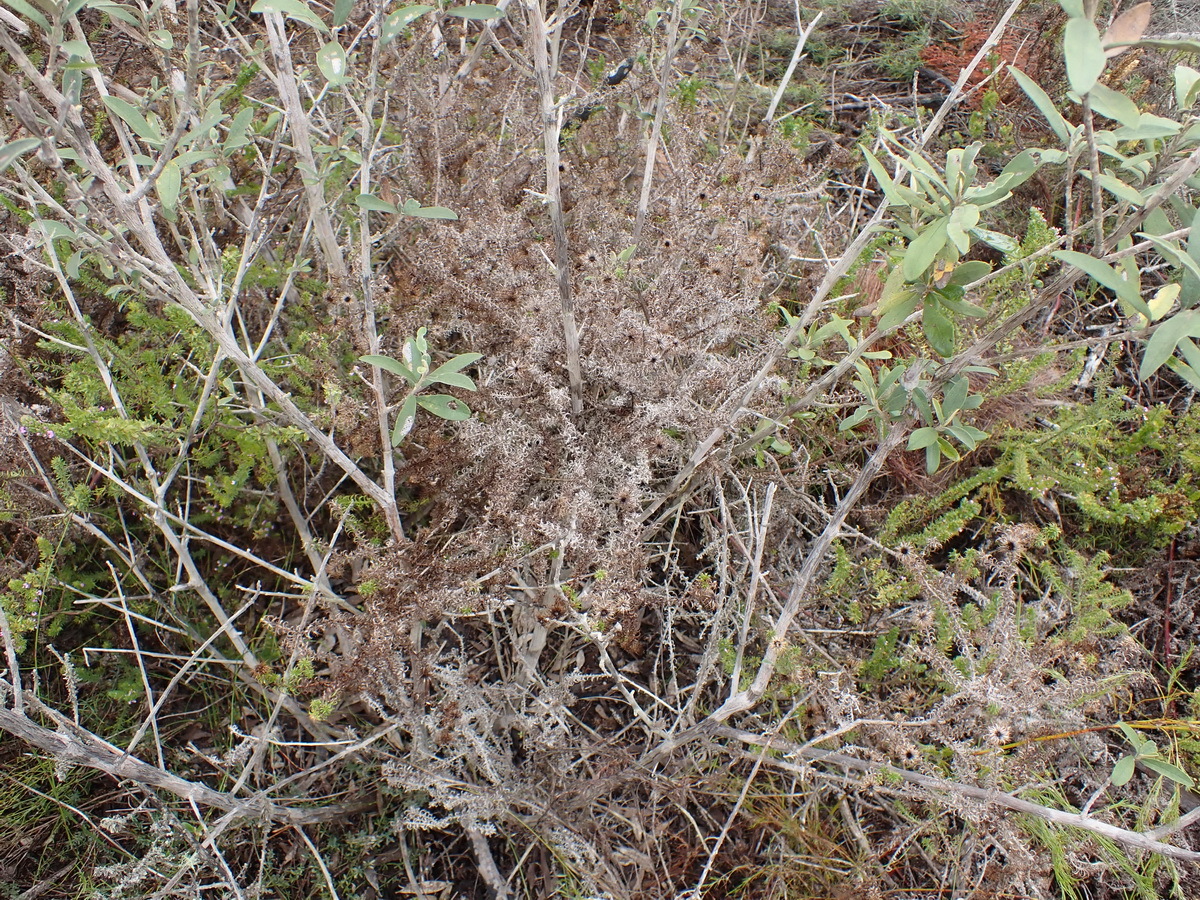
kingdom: Plantae
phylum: Tracheophyta
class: Magnoliopsida
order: Asterales
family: Asteraceae
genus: Cullumia
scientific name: Cullumia decurrens
